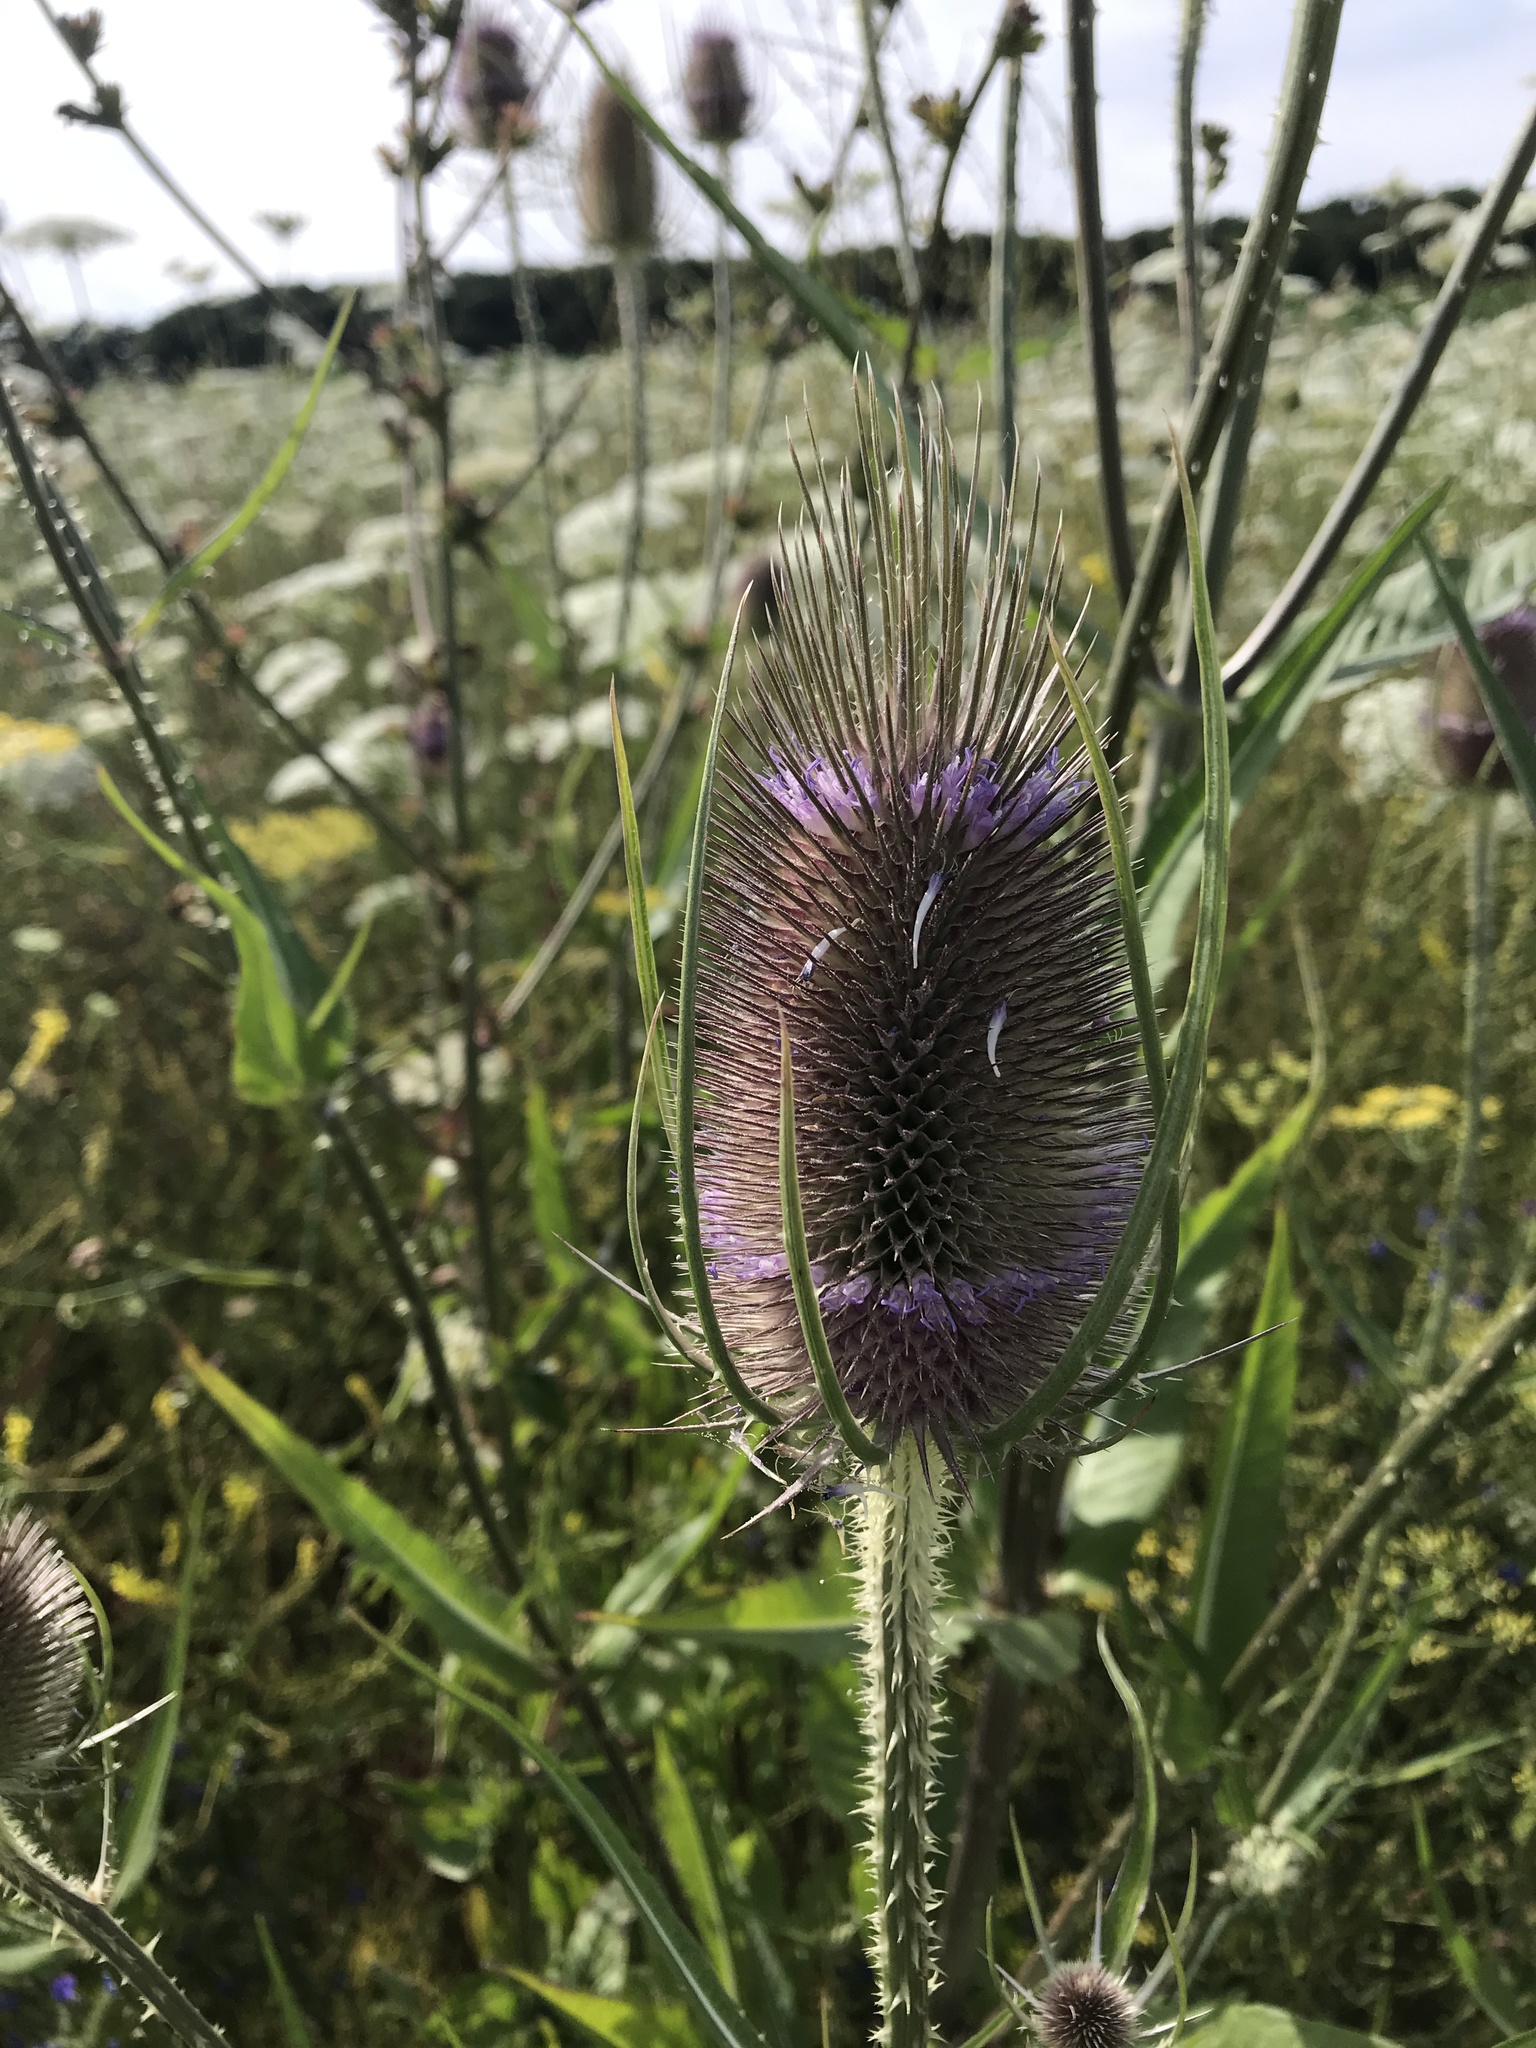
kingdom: Plantae
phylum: Tracheophyta
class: Magnoliopsida
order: Dipsacales
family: Caprifoliaceae
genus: Dipsacus
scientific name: Dipsacus fullonum
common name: Teasel
